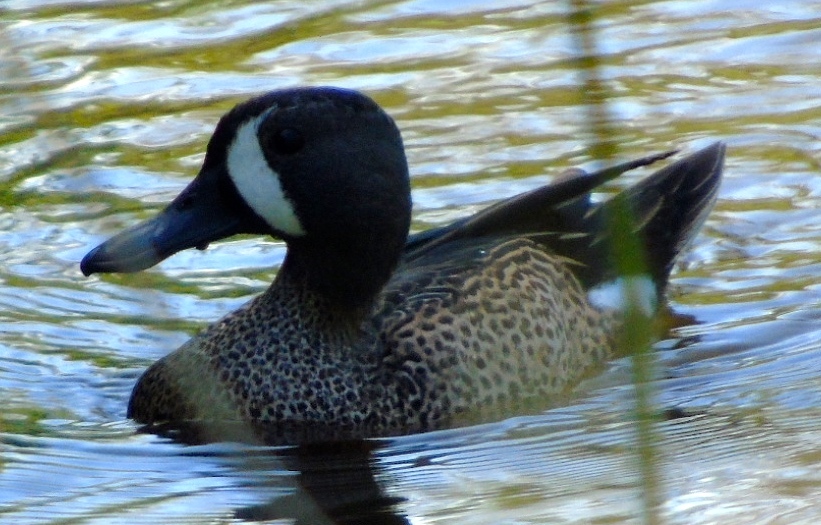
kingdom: Animalia
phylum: Chordata
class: Aves
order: Anseriformes
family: Anatidae
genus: Spatula
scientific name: Spatula discors
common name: Blue-winged teal
